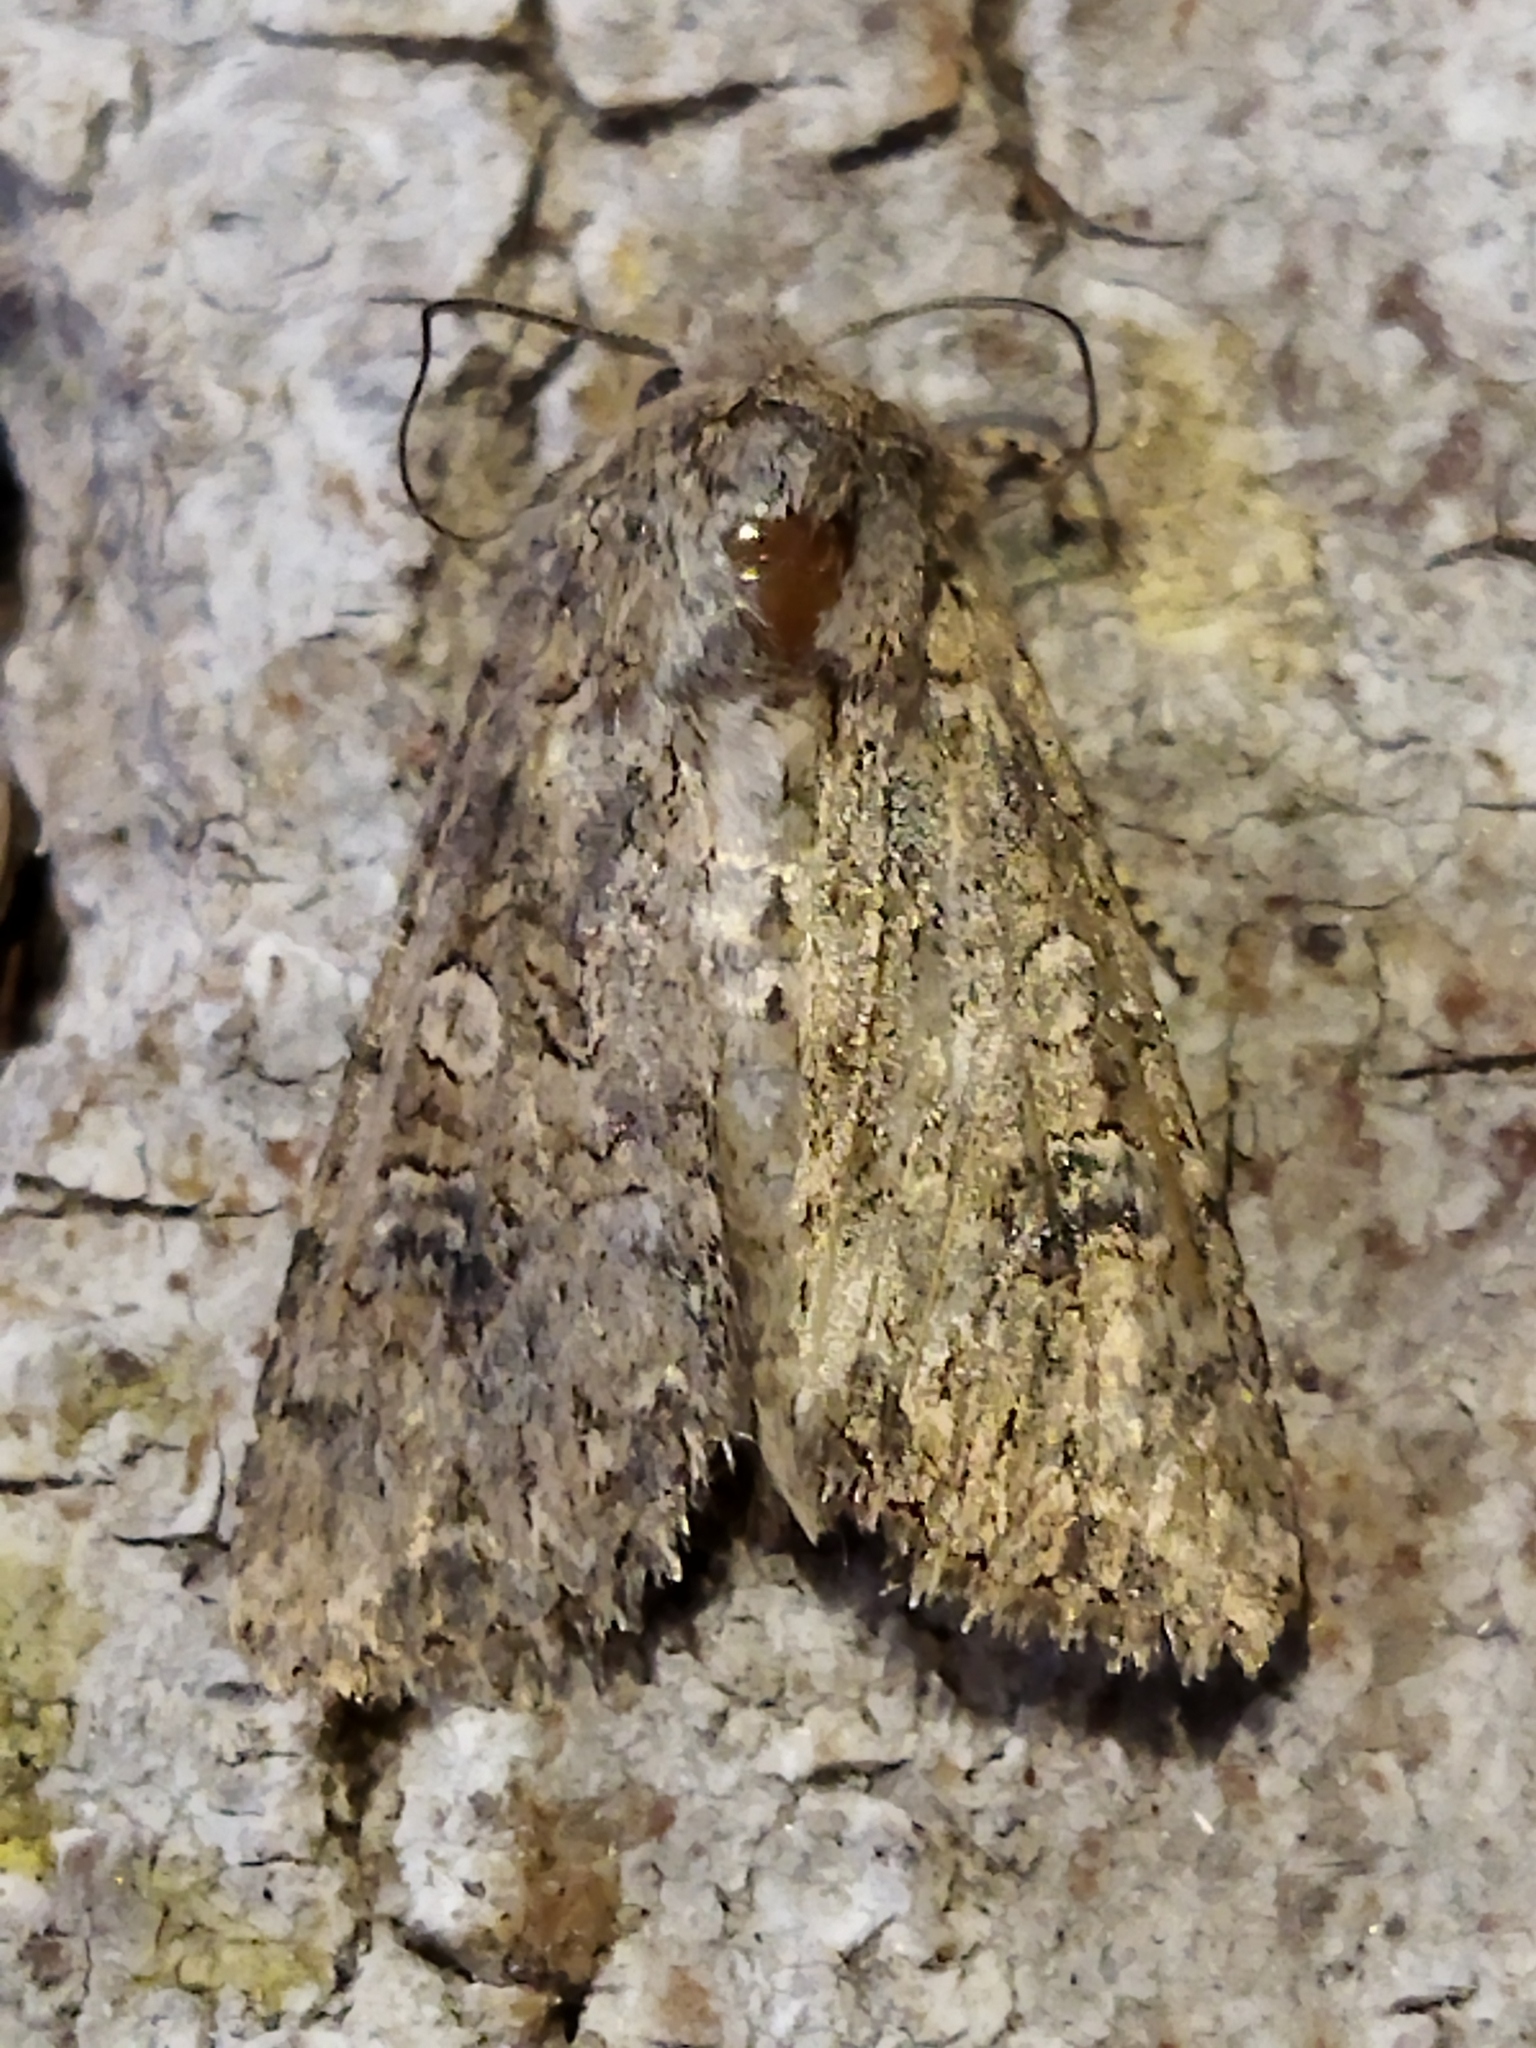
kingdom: Animalia
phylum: Arthropoda
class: Insecta
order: Lepidoptera
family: Noctuidae
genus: Anarta
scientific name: Anarta trifolii
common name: Clover cutworm moth
